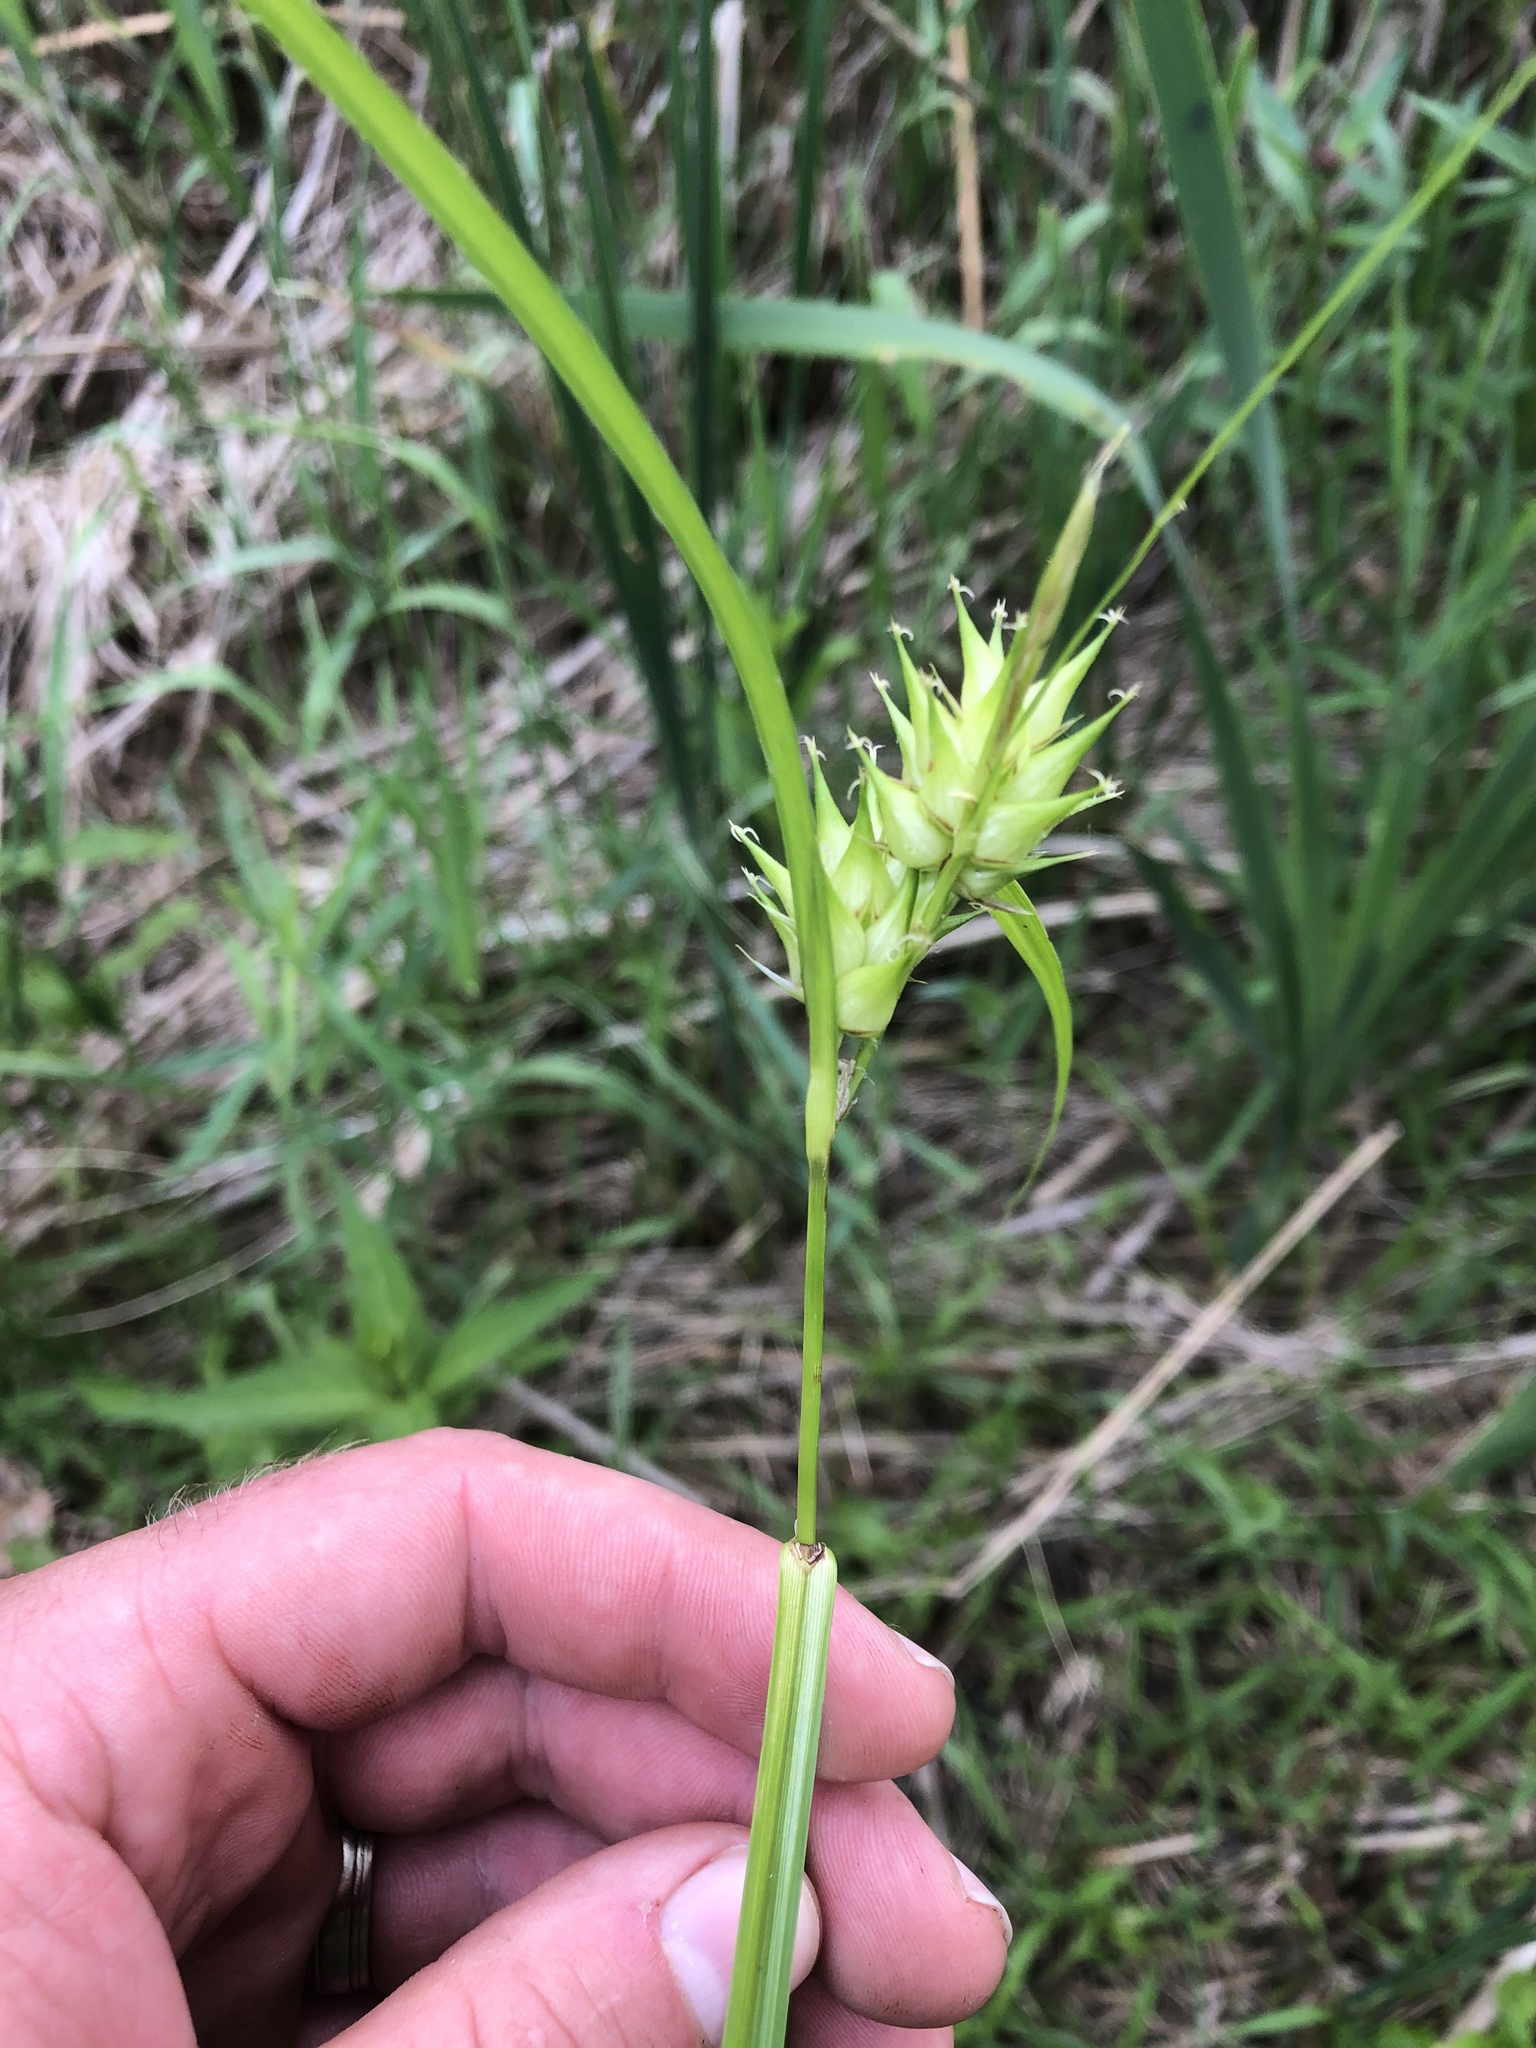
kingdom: Plantae
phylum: Tracheophyta
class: Liliopsida
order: Poales
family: Cyperaceae
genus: Carex
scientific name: Carex lupulina
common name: Hop sedge
